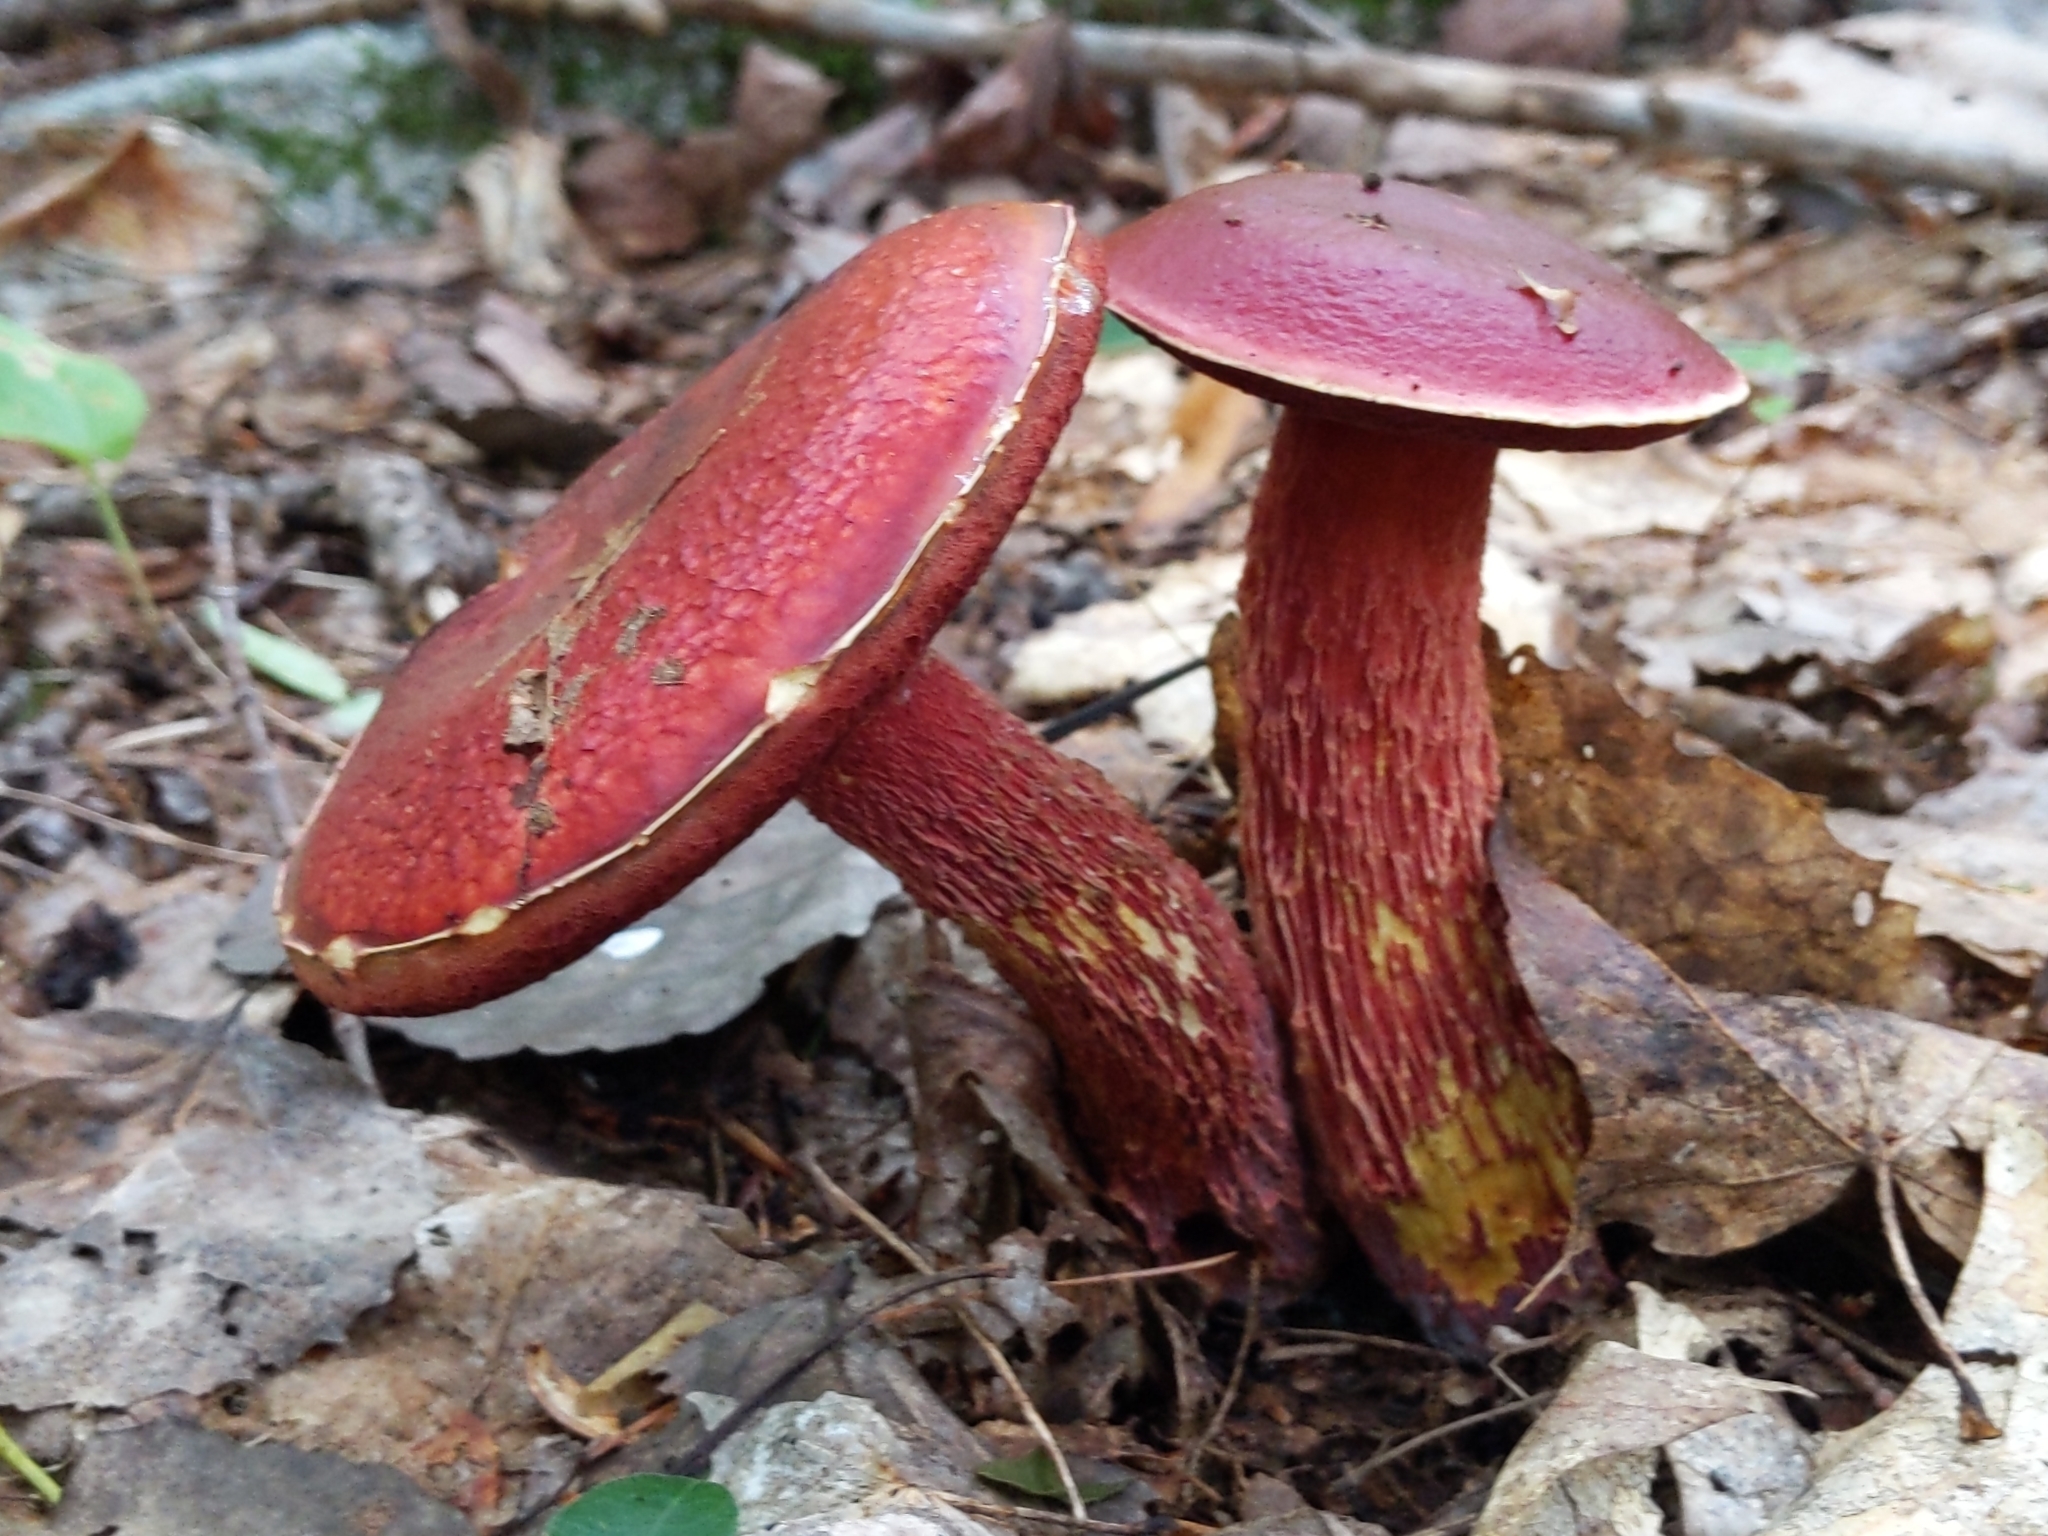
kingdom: Fungi
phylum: Basidiomycota
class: Agaricomycetes
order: Boletales
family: Boletaceae
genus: Butyriboletus
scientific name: Butyriboletus frostii
